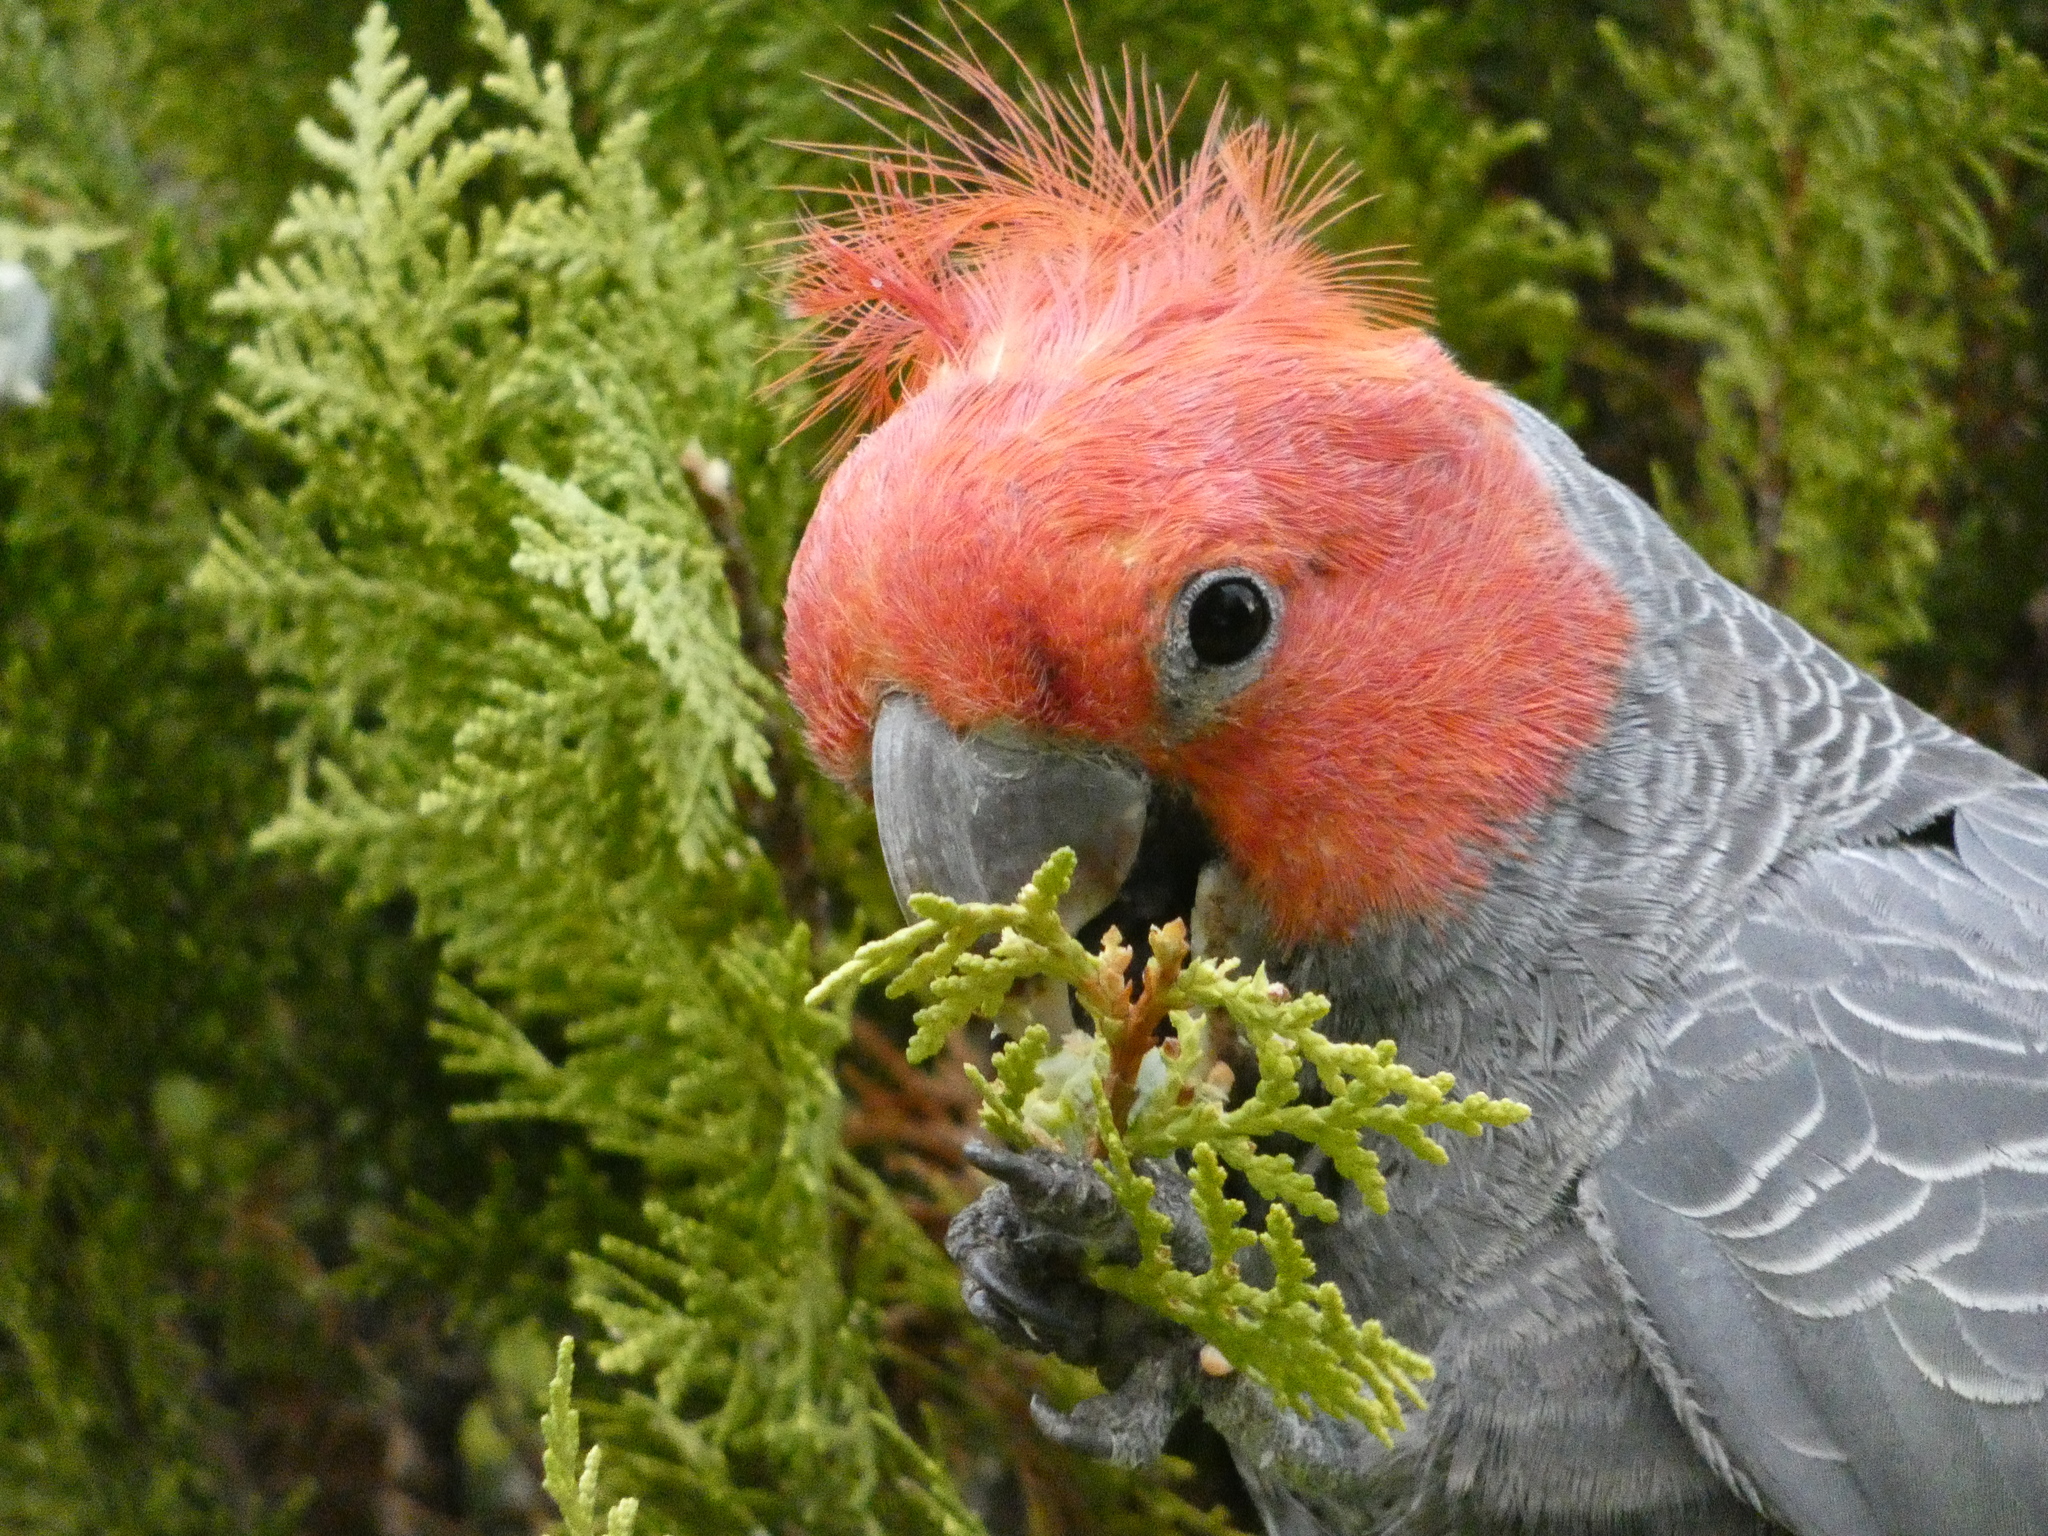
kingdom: Animalia
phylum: Chordata
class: Aves
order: Psittaciformes
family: Psittacidae
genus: Callocephalon
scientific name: Callocephalon fimbriatum
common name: Gang-gang cockatoo
